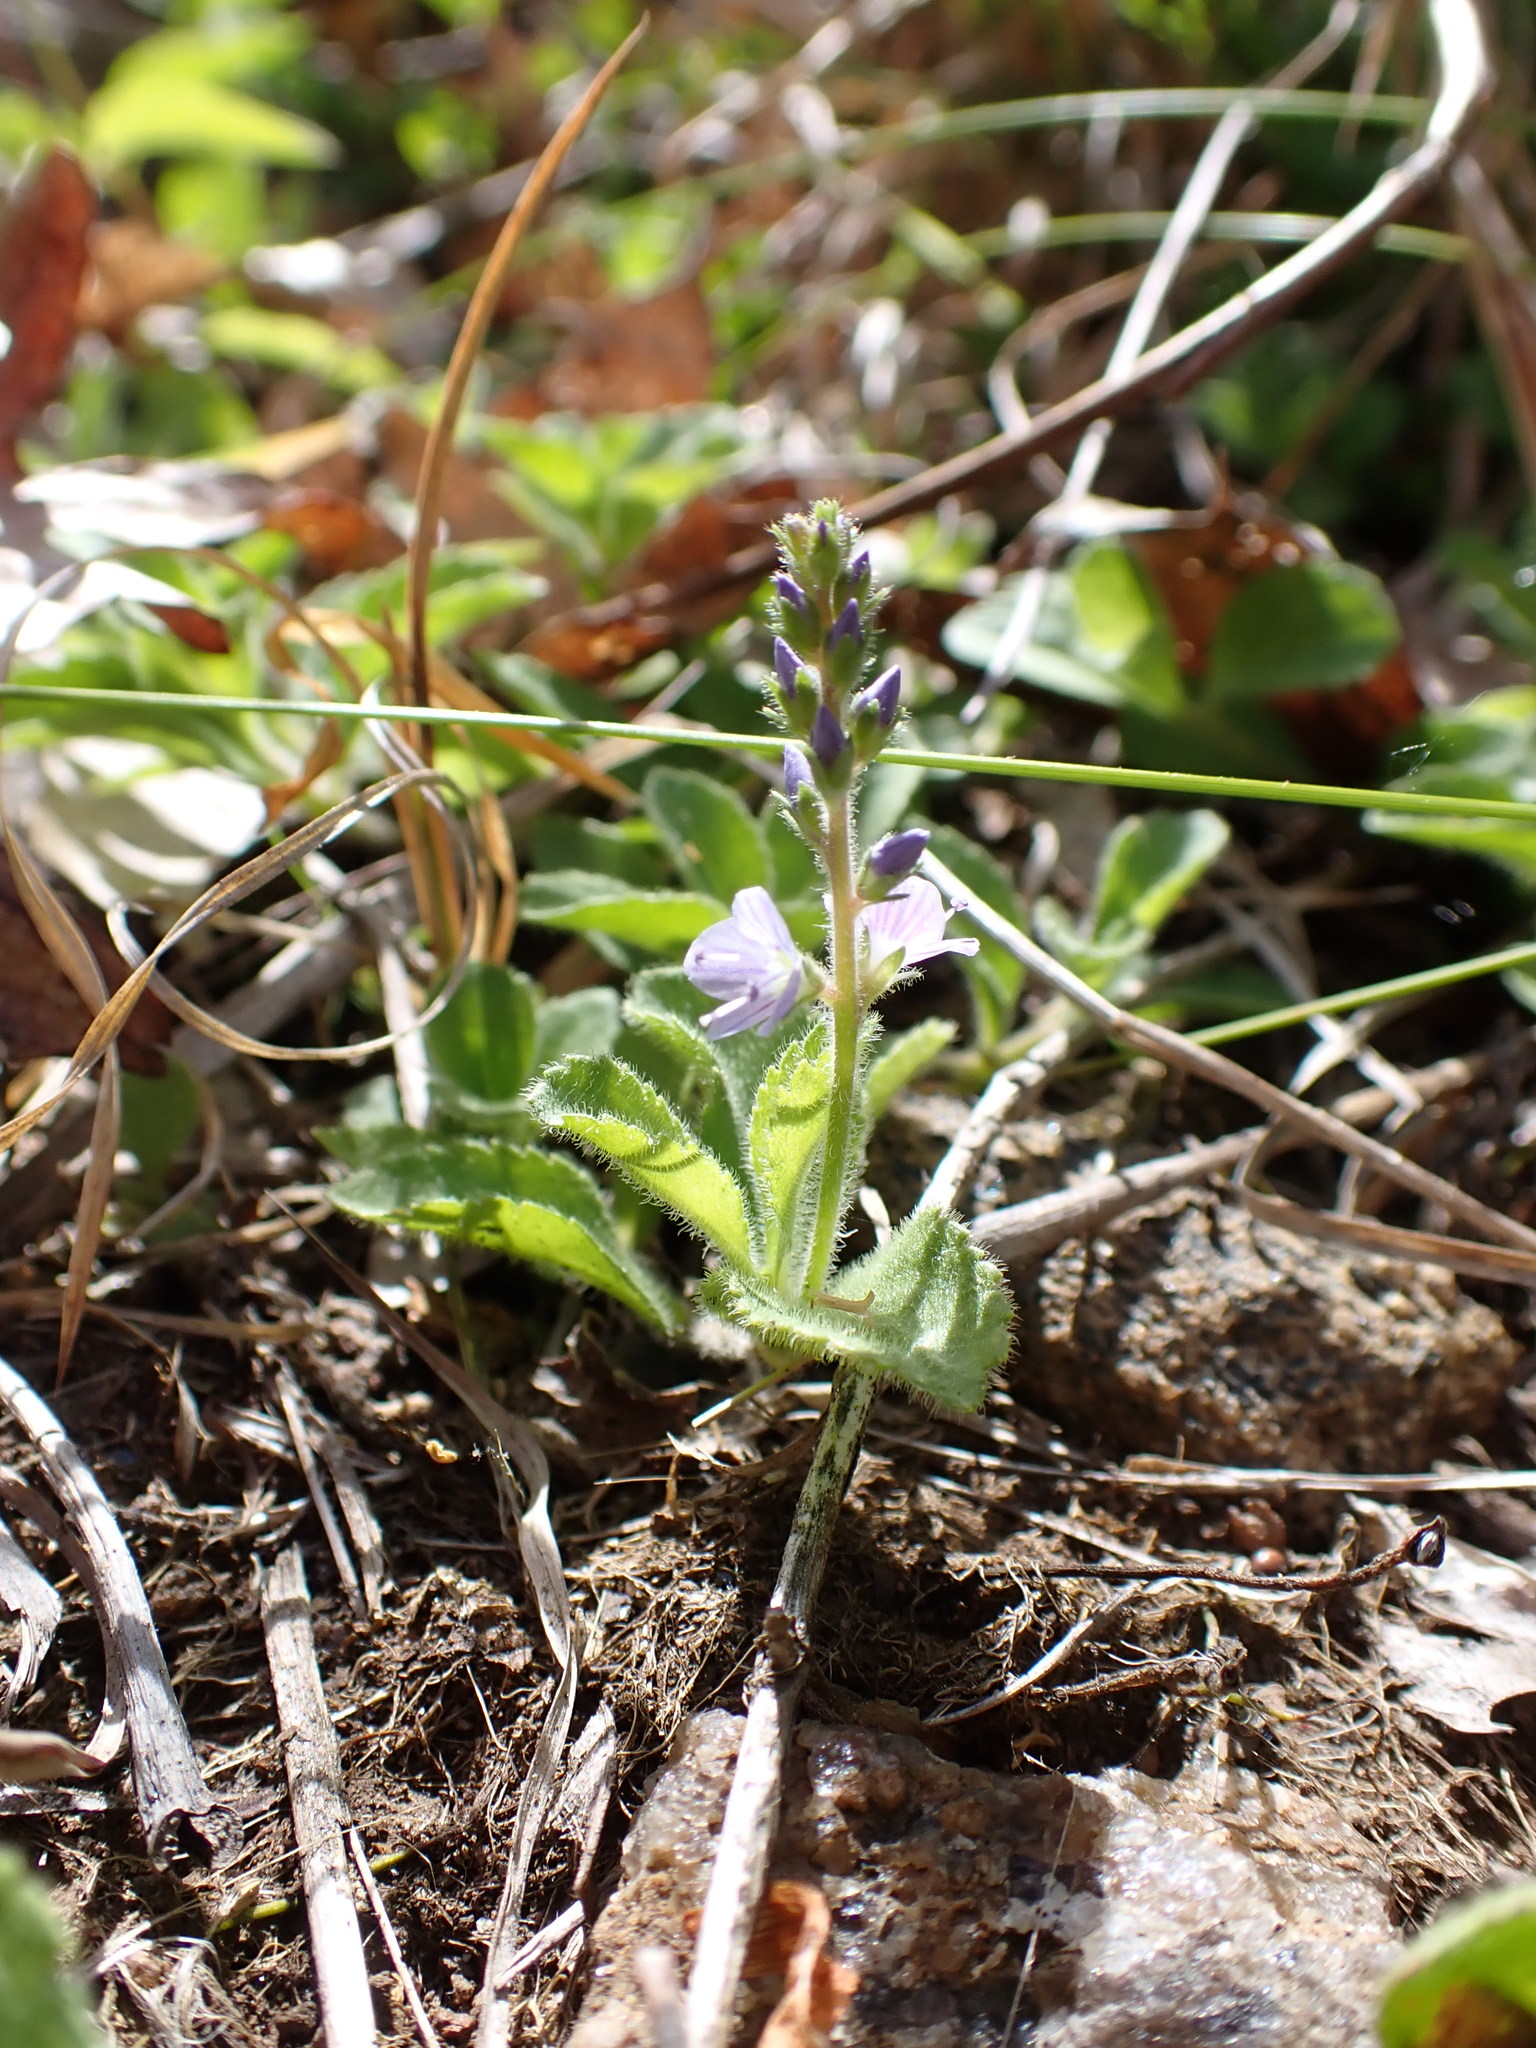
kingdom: Plantae
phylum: Tracheophyta
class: Magnoliopsida
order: Lamiales
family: Plantaginaceae
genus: Veronica
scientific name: Veronica officinalis
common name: Common speedwell
